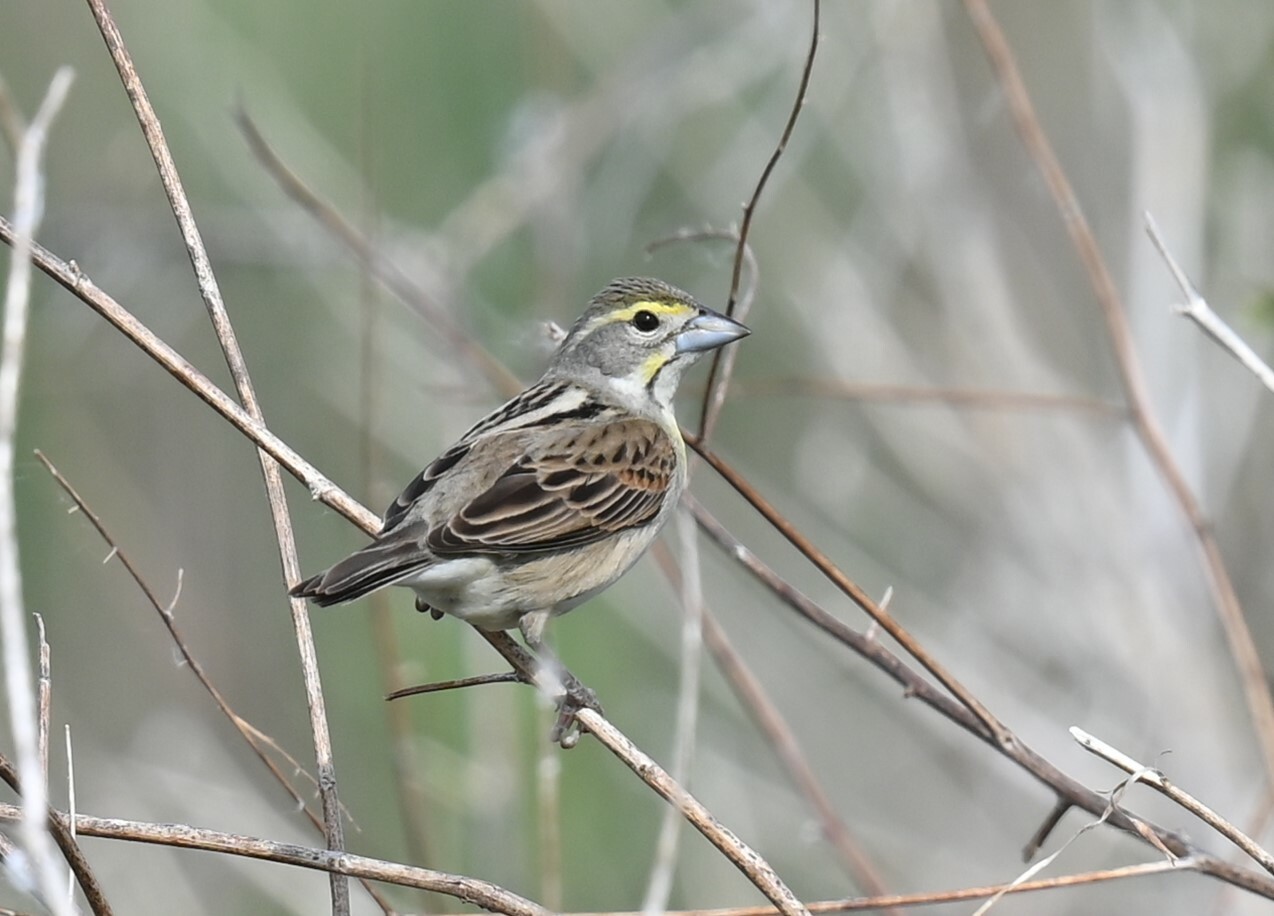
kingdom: Animalia
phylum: Chordata
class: Aves
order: Passeriformes
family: Cardinalidae
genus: Spiza
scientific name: Spiza americana
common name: Dickcissel
